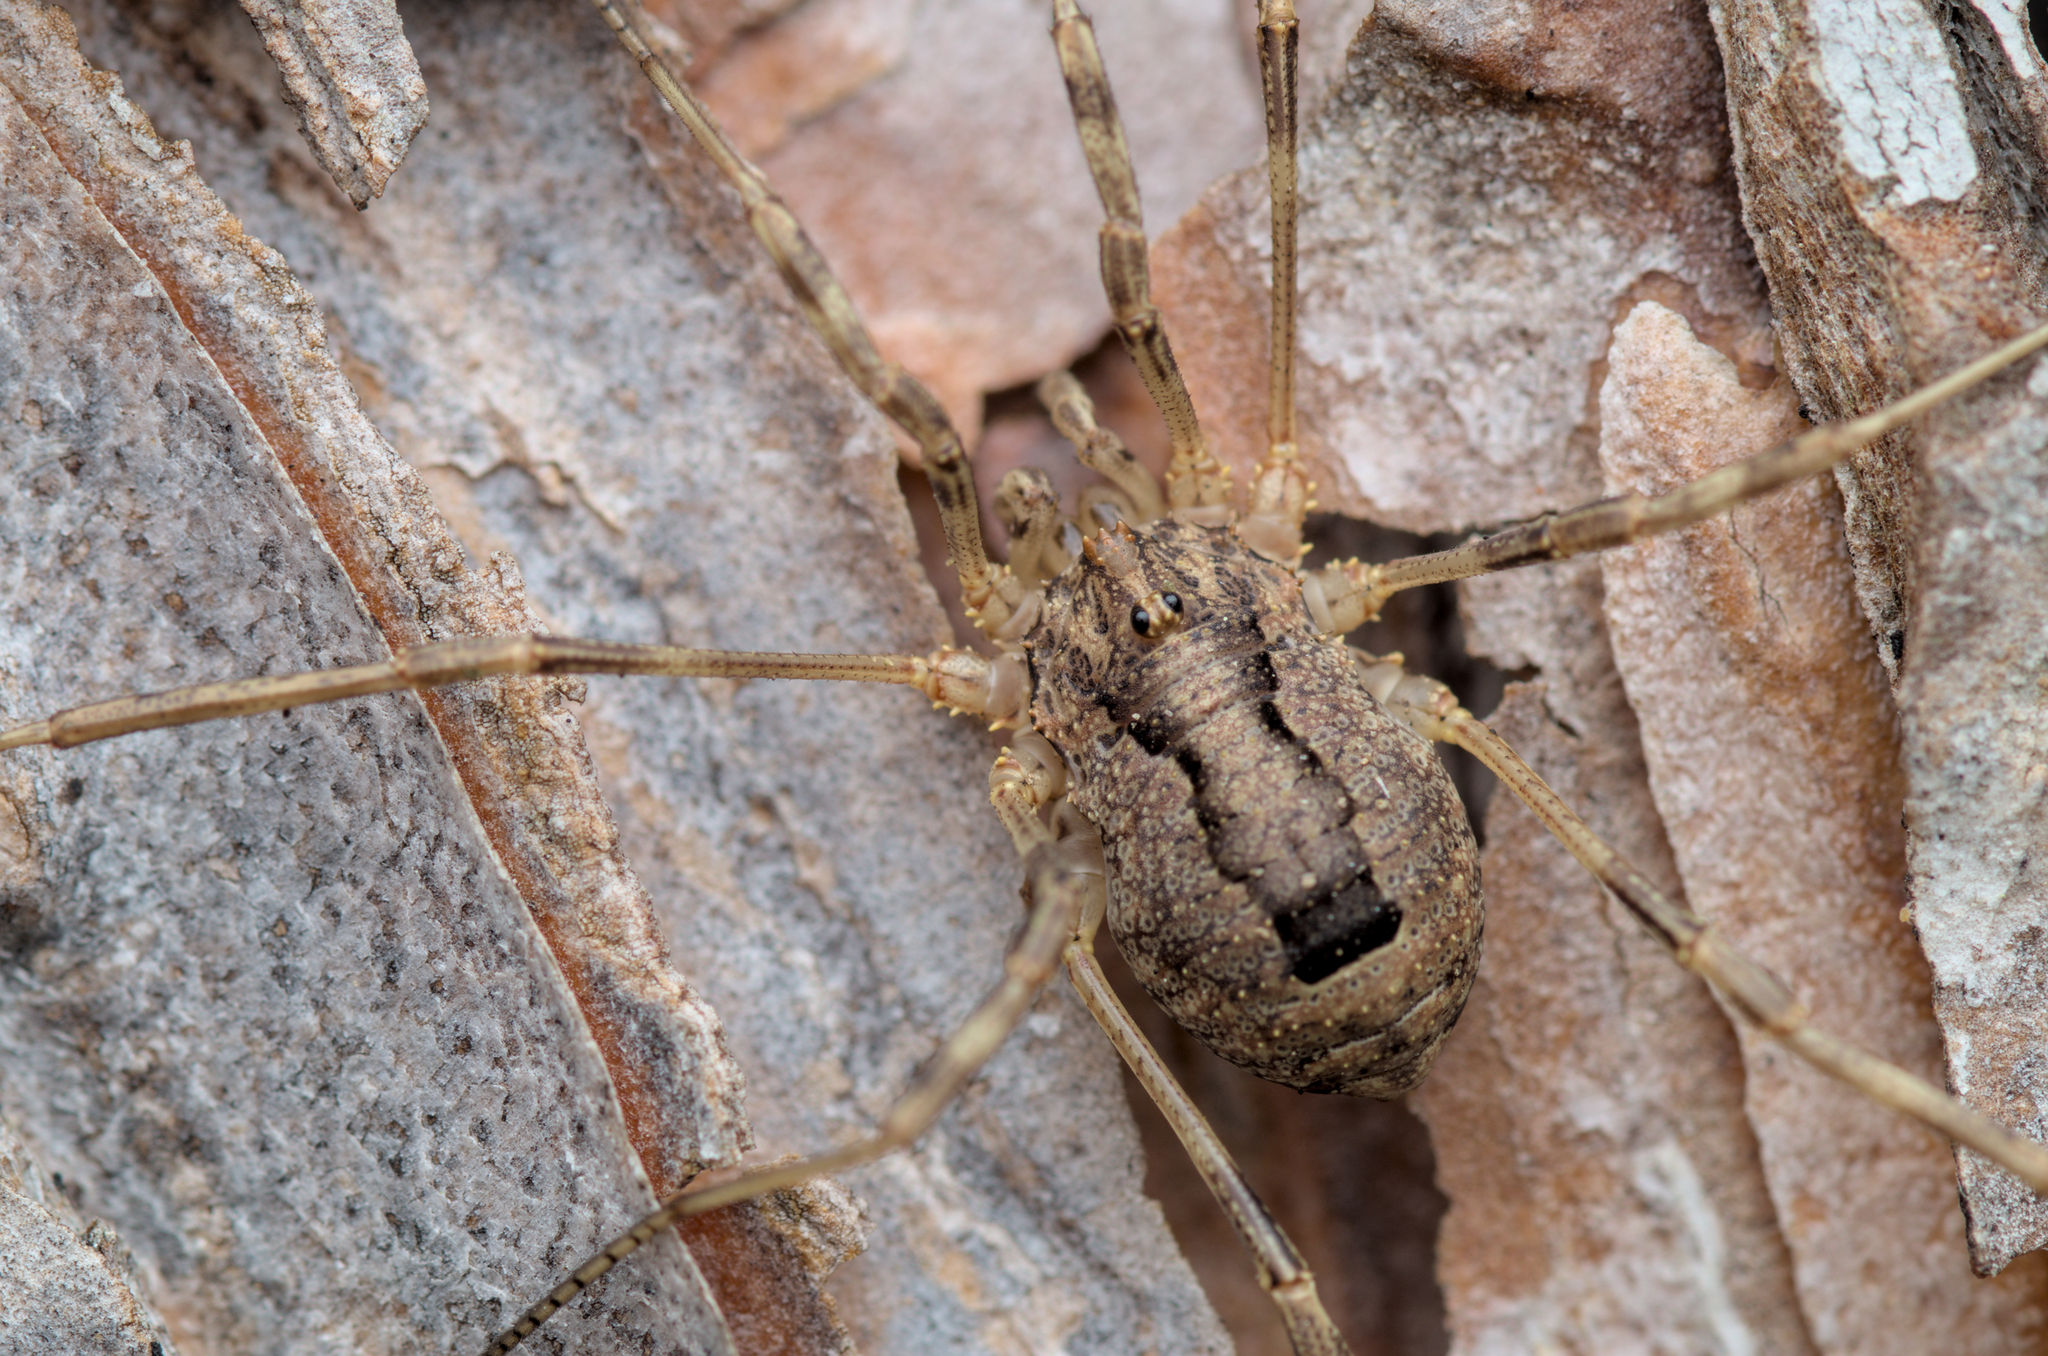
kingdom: Animalia
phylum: Arthropoda
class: Arachnida
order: Opiliones
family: Phalangiidae
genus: Odiellus
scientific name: Odiellus spinosus
